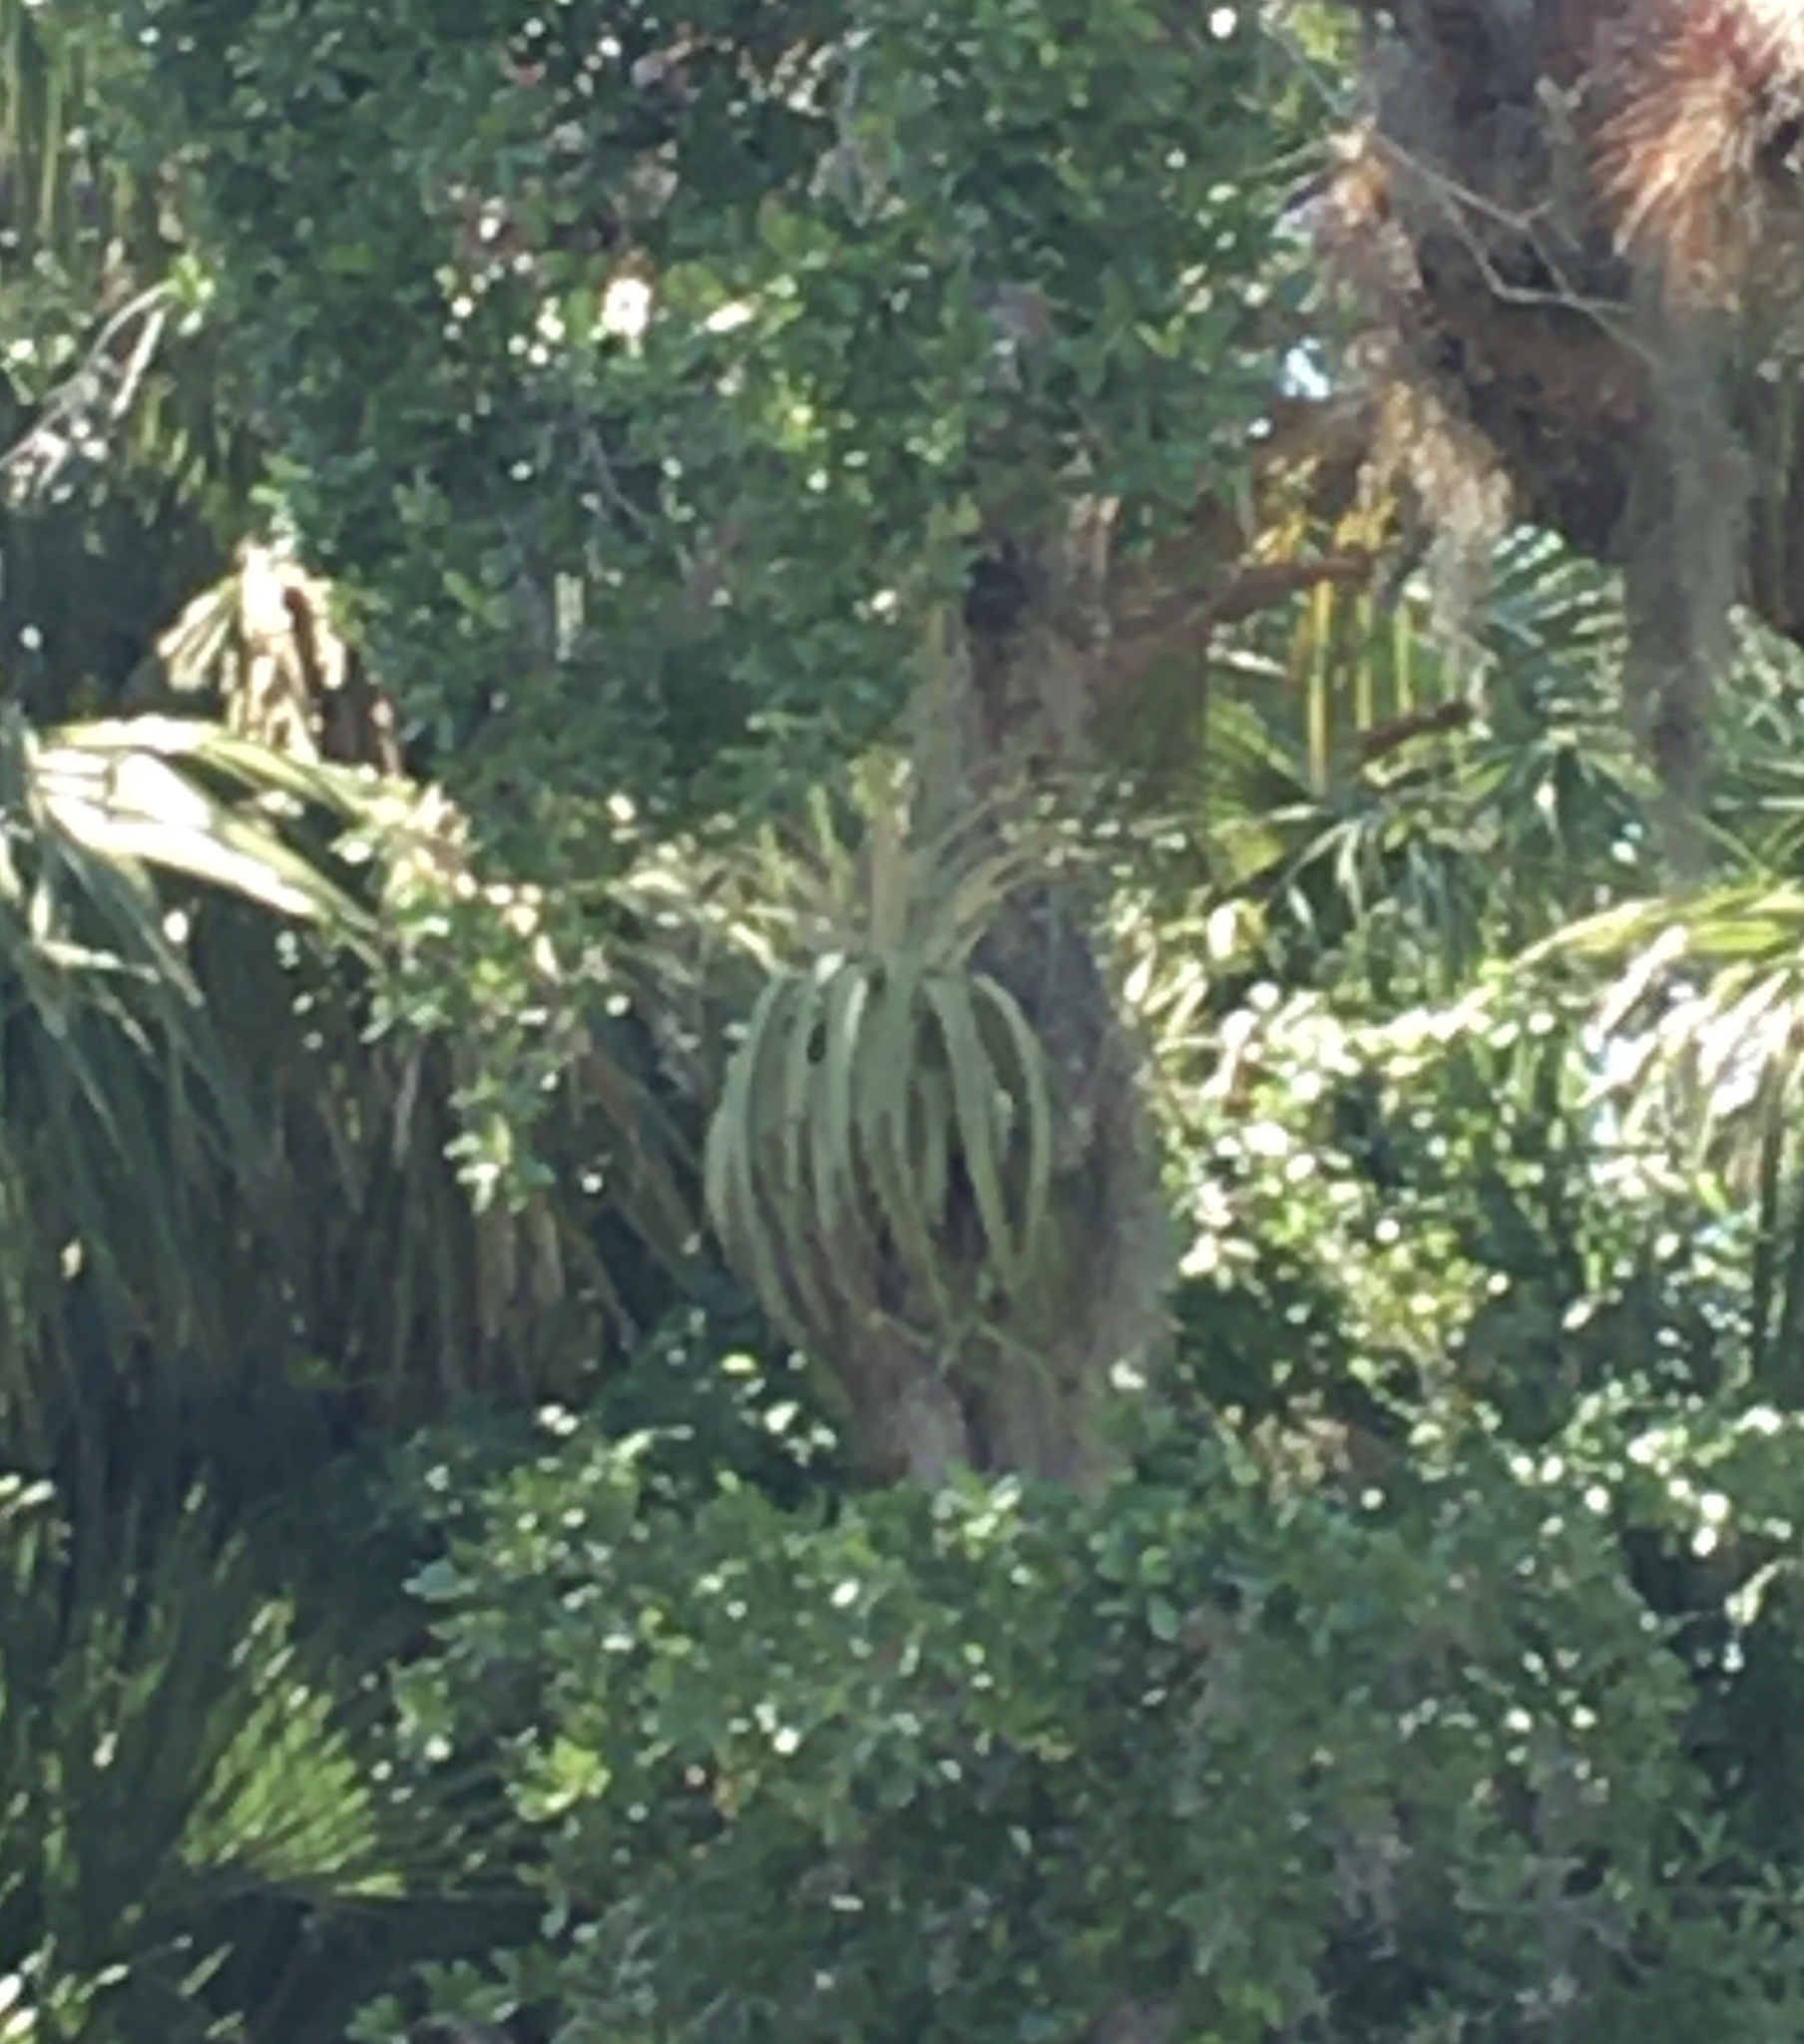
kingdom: Plantae
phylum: Tracheophyta
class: Liliopsida
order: Poales
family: Bromeliaceae
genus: Tillandsia
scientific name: Tillandsia utriculata
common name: Wild pine
